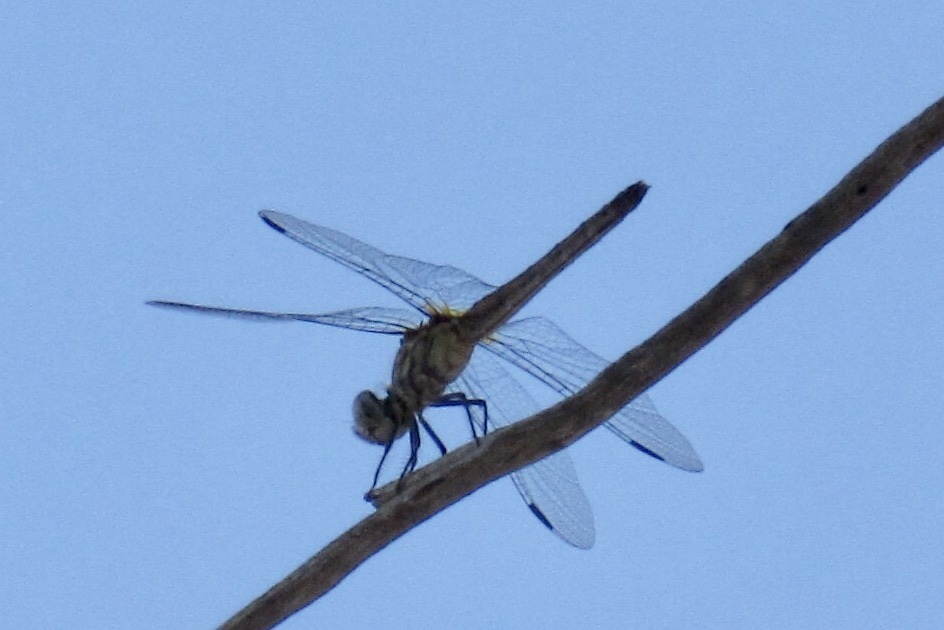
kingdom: Animalia
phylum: Arthropoda
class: Insecta
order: Odonata
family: Libellulidae
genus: Pachydiplax
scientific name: Pachydiplax longipennis
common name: Blue dasher
